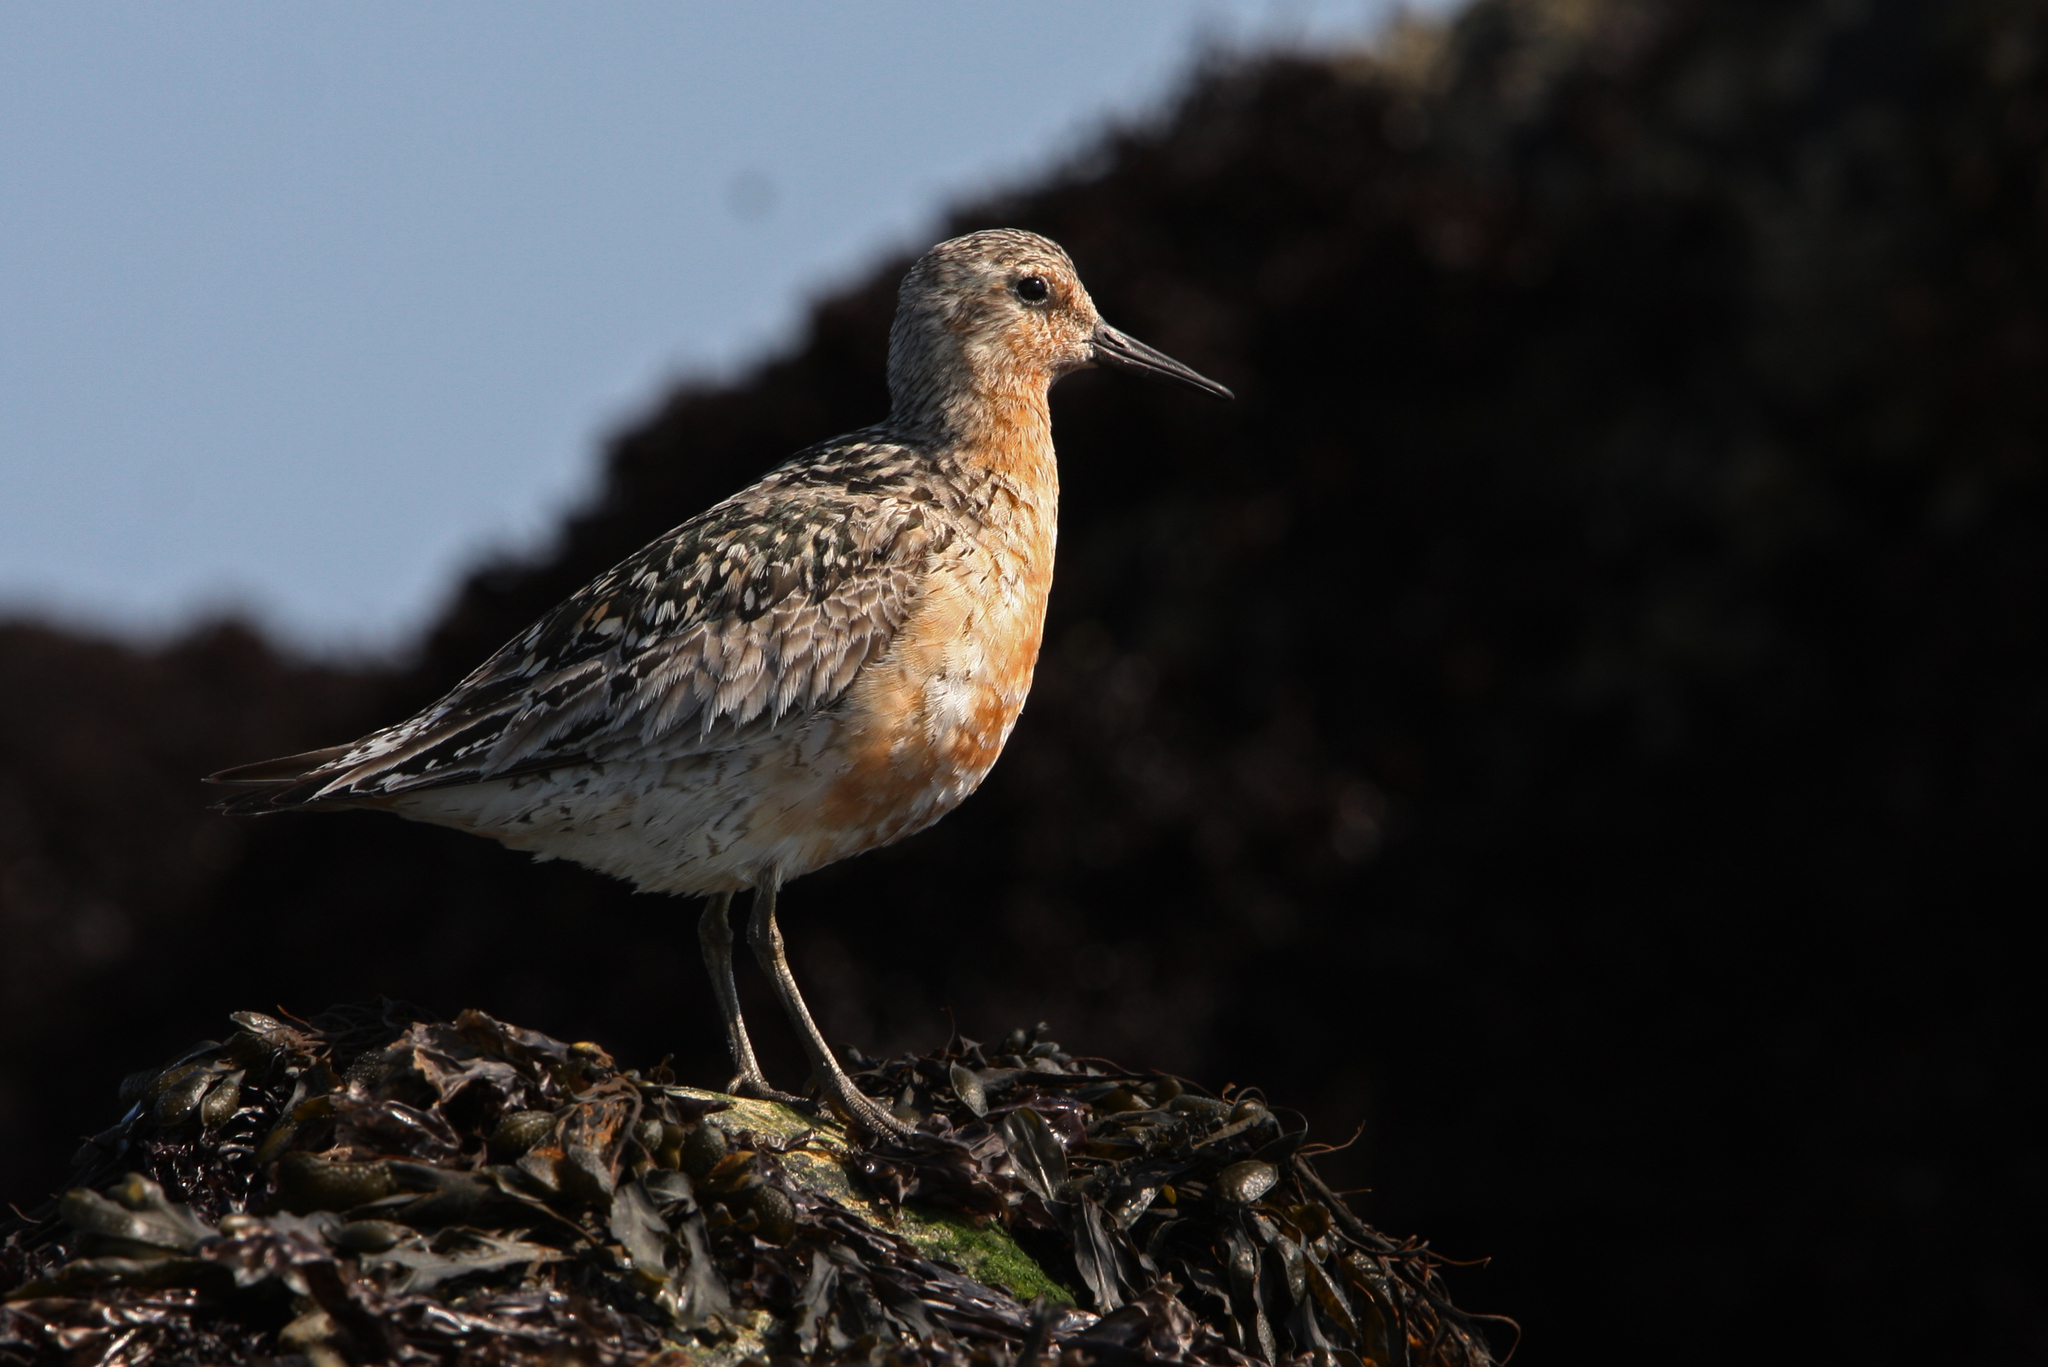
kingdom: Animalia
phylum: Chordata
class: Aves
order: Charadriiformes
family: Scolopacidae
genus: Calidris
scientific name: Calidris canutus
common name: Red knot
